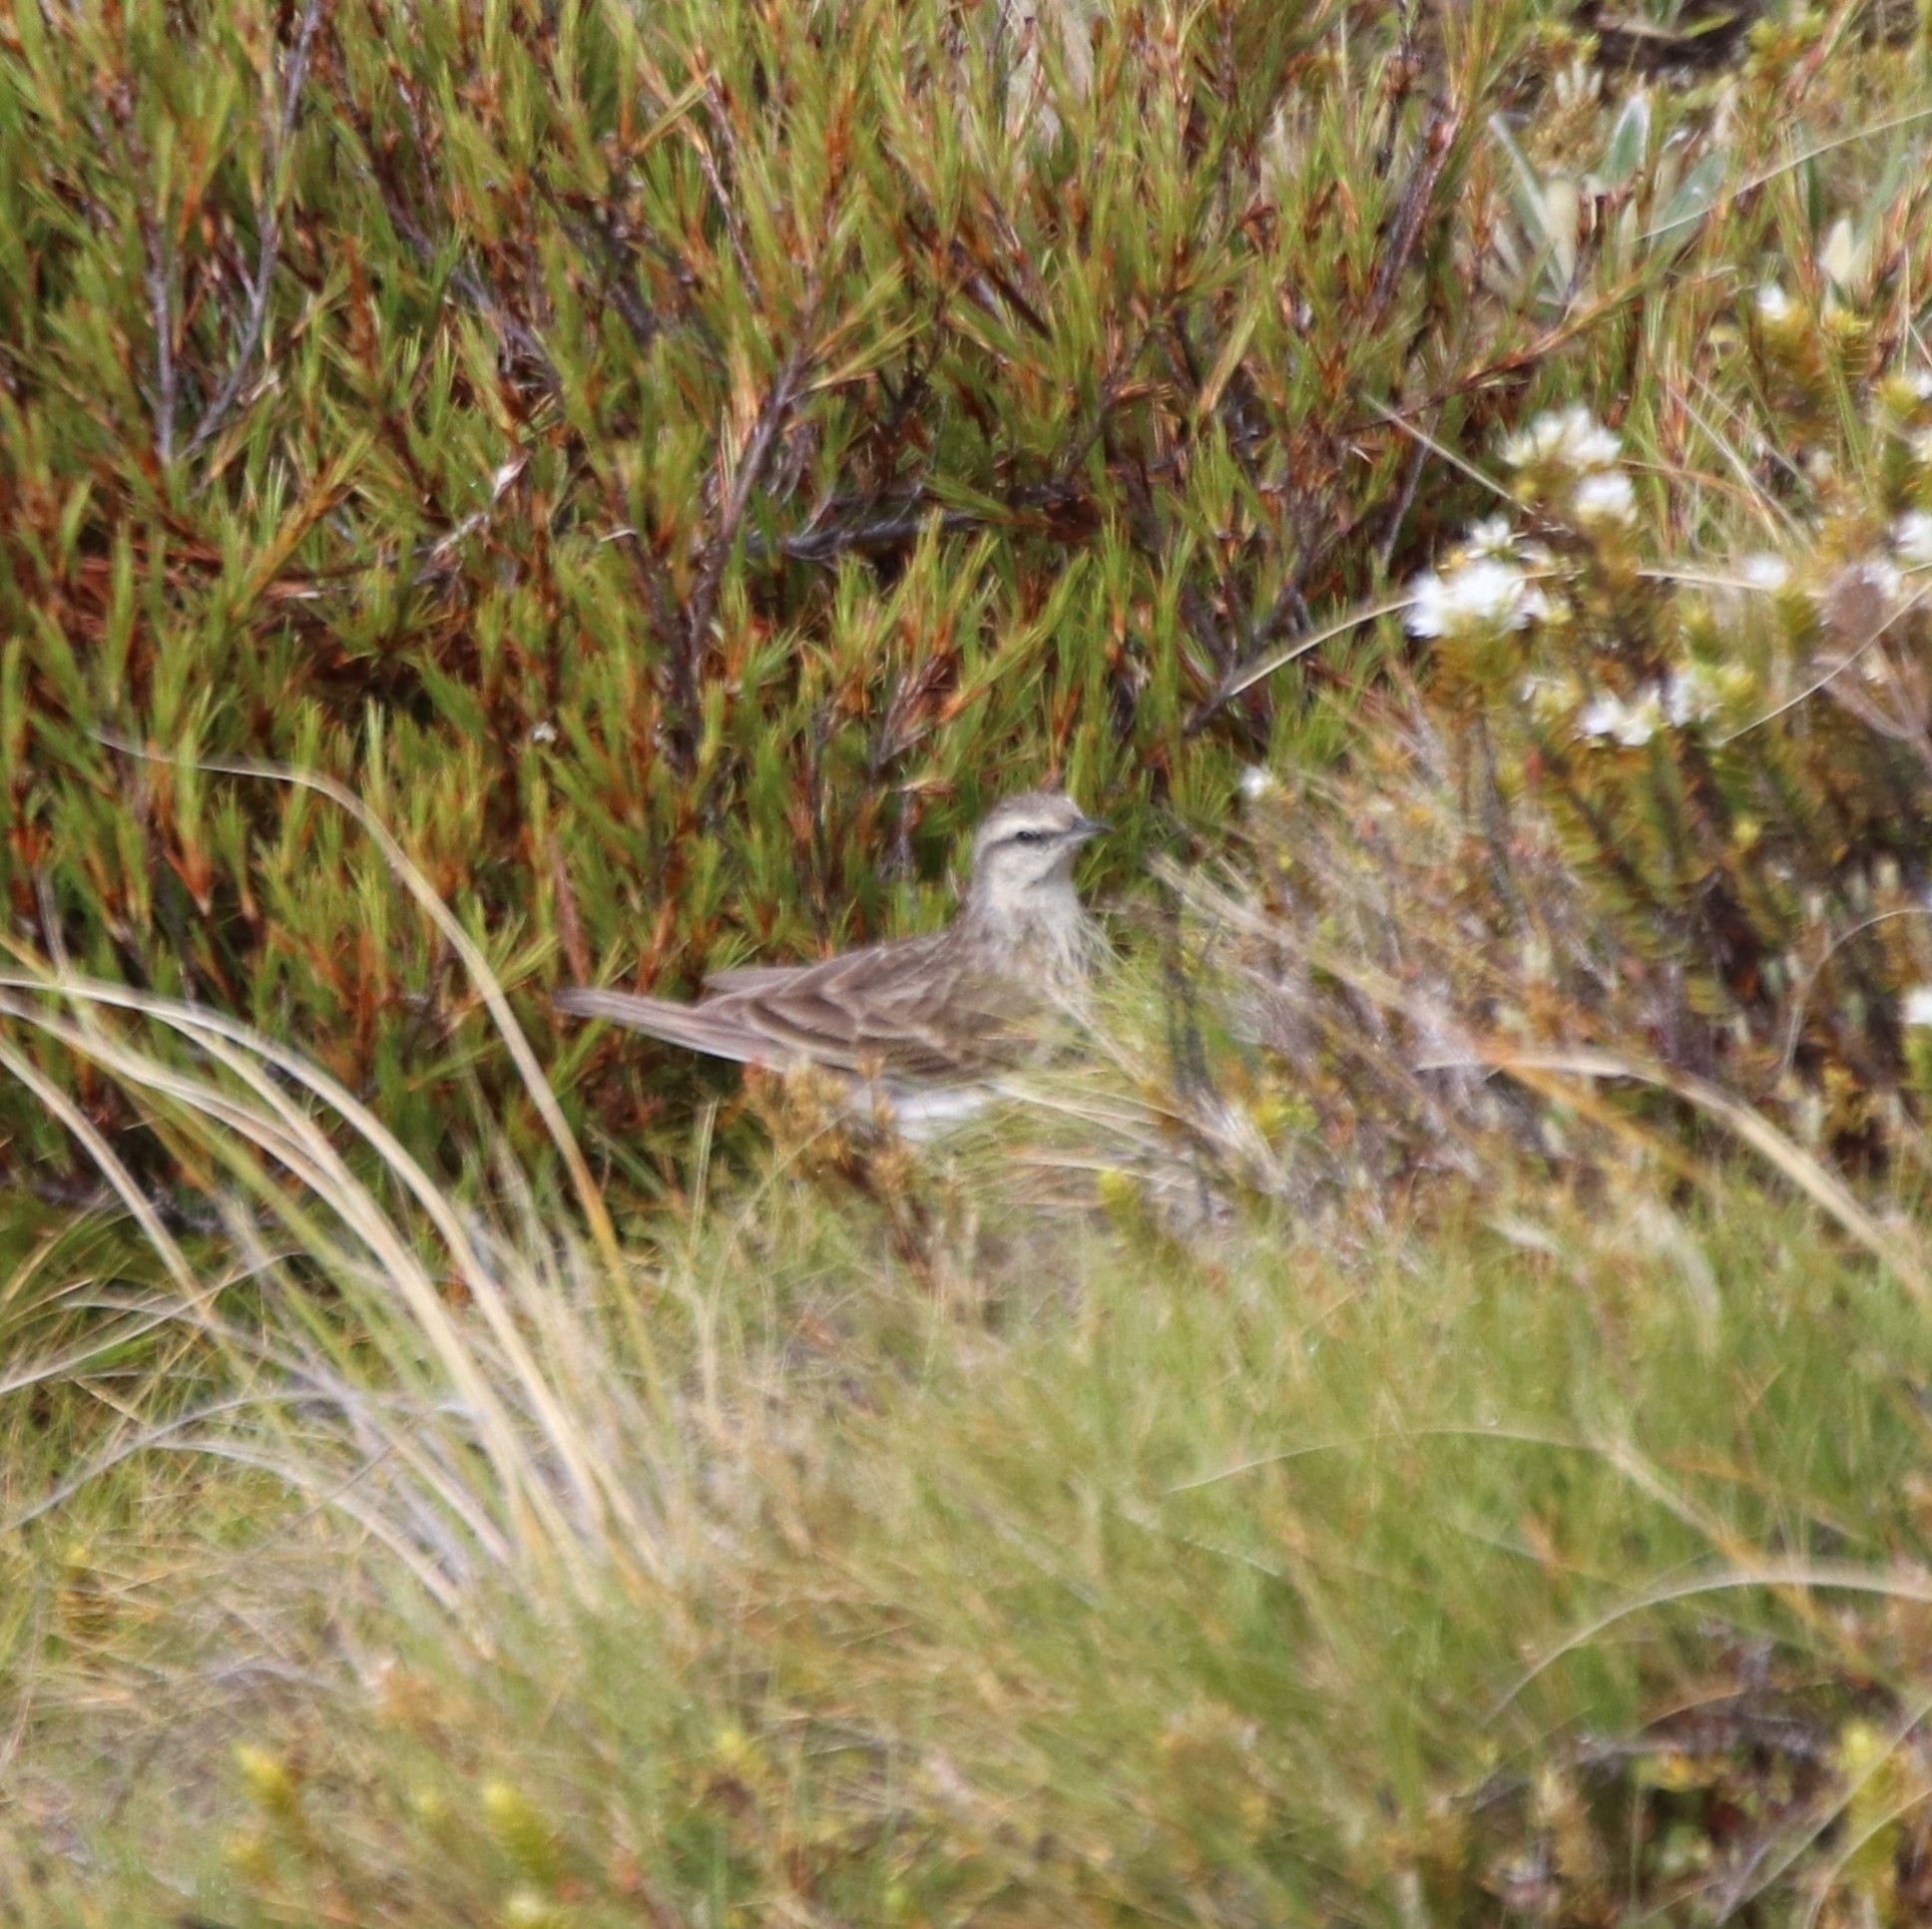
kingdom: Animalia
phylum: Chordata
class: Aves
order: Passeriformes
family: Motacillidae
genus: Anthus
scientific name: Anthus novaeseelandiae
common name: New zealand pipit
